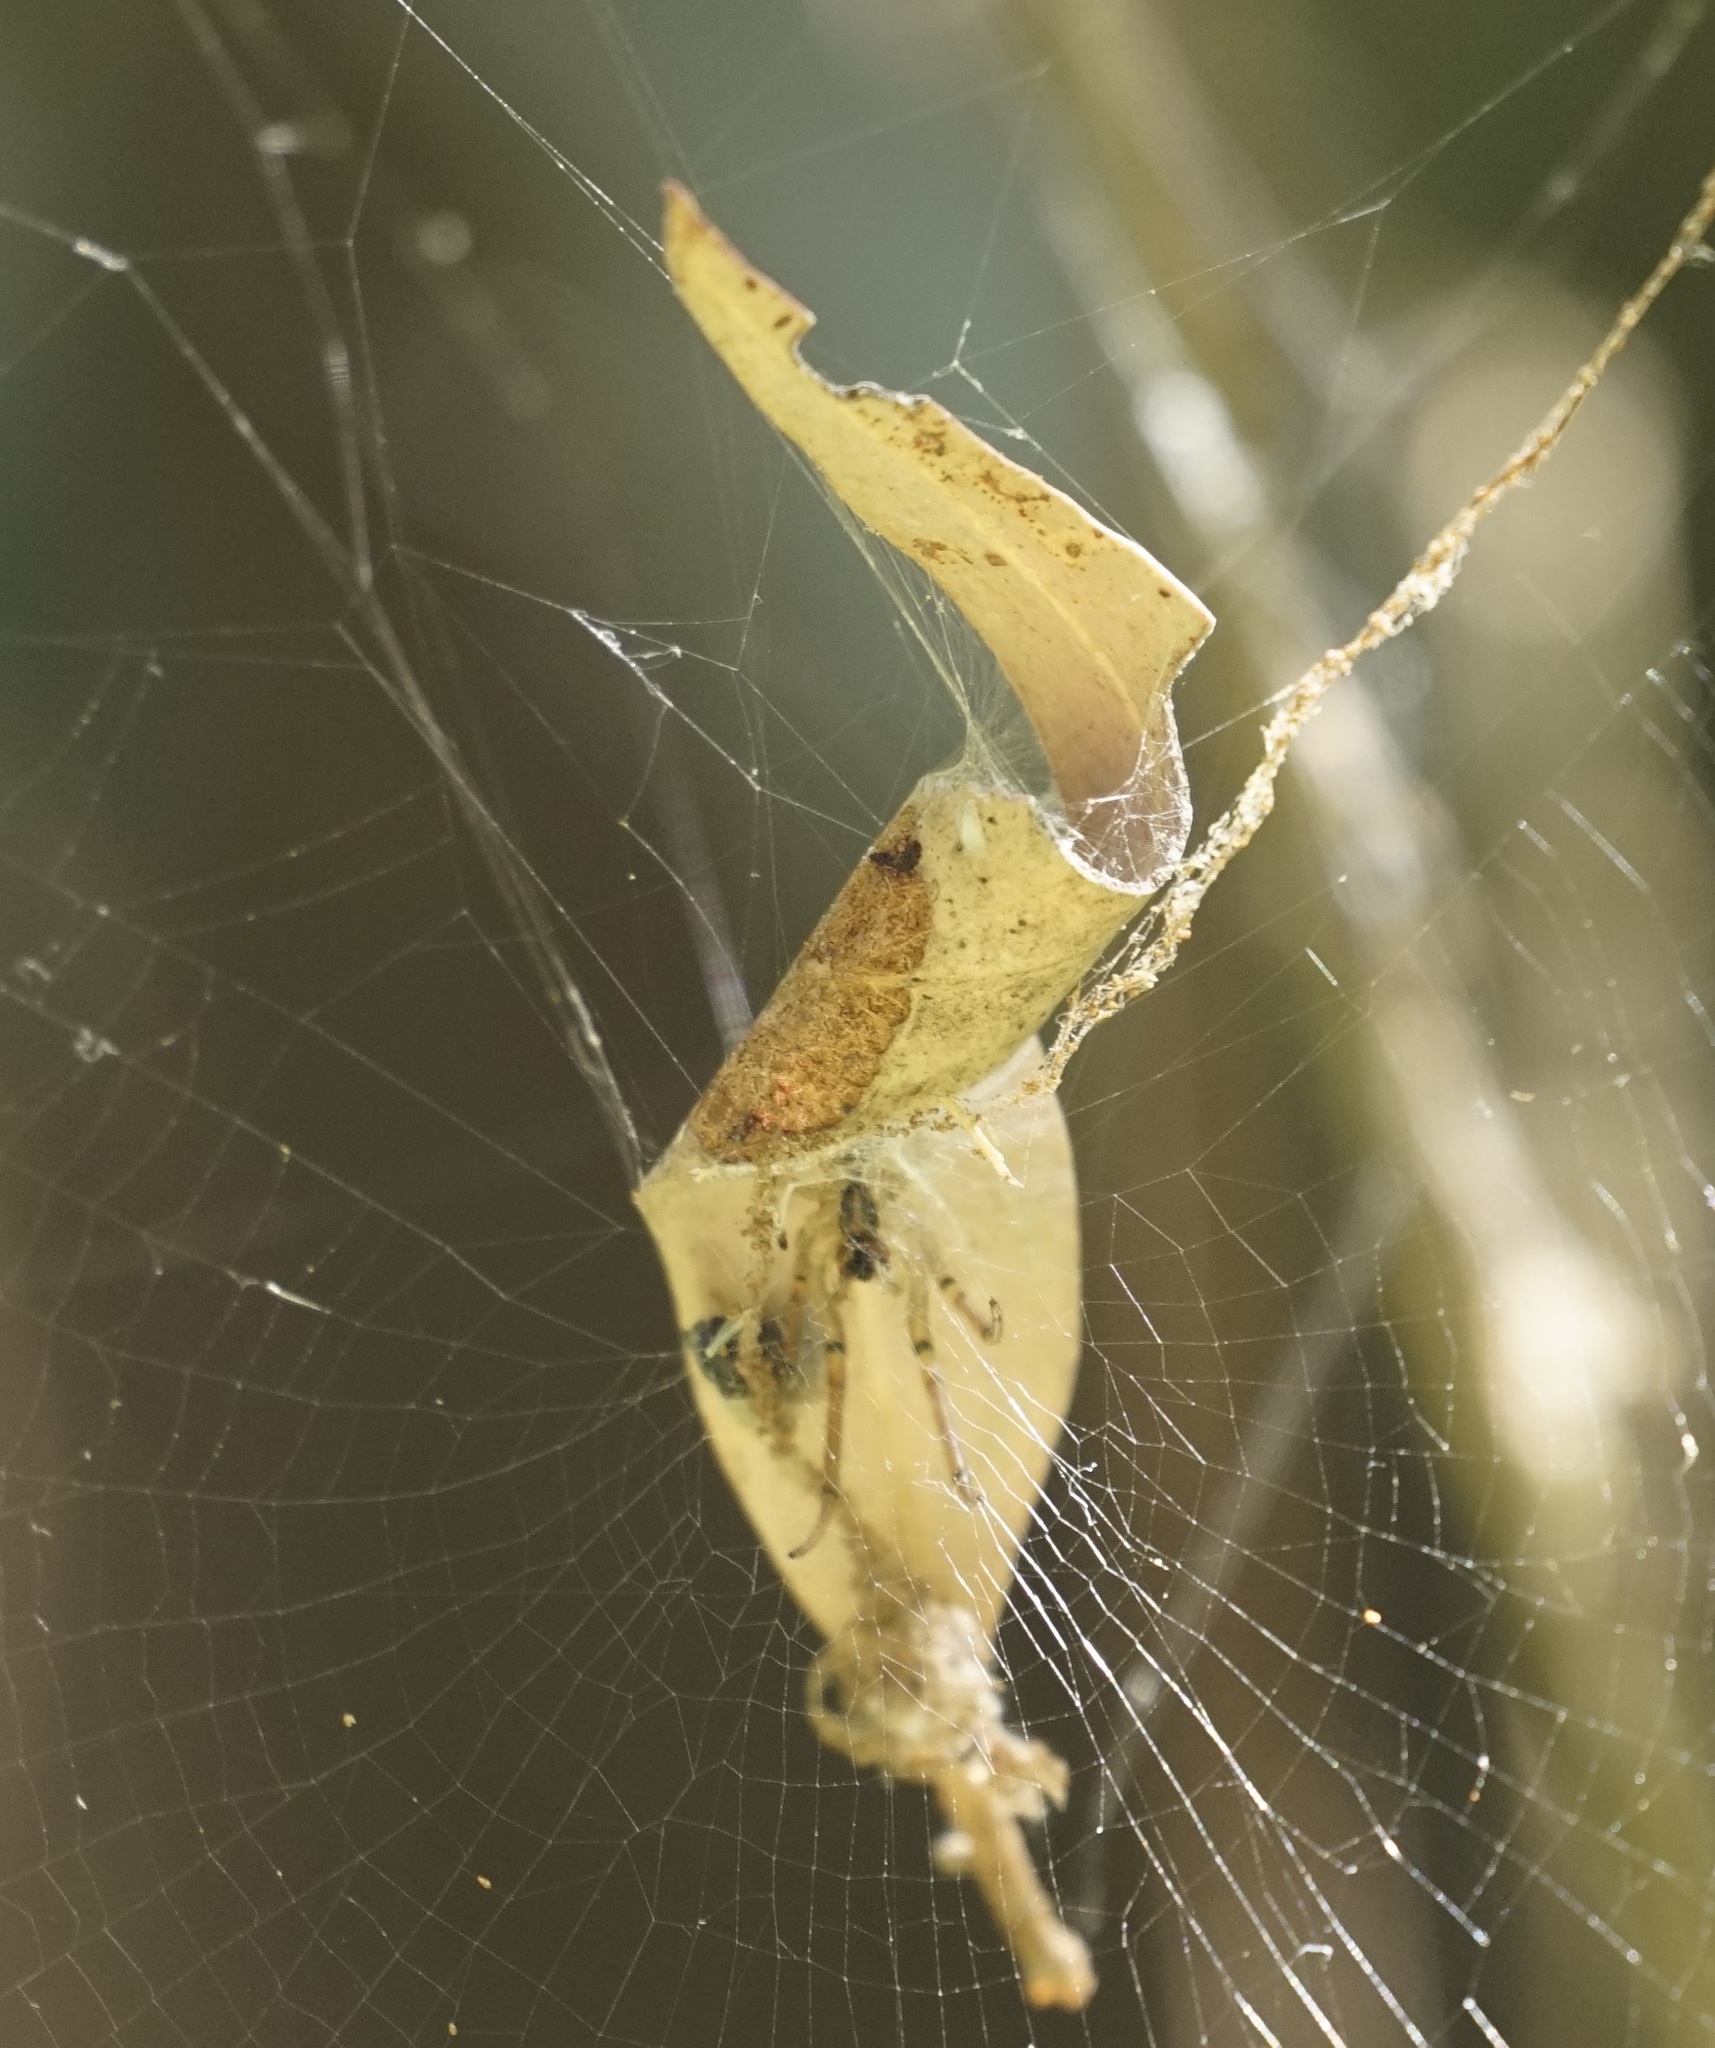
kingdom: Animalia
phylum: Arthropoda
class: Arachnida
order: Araneae
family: Araneidae
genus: Phonognatha
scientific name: Phonognatha graeffei
